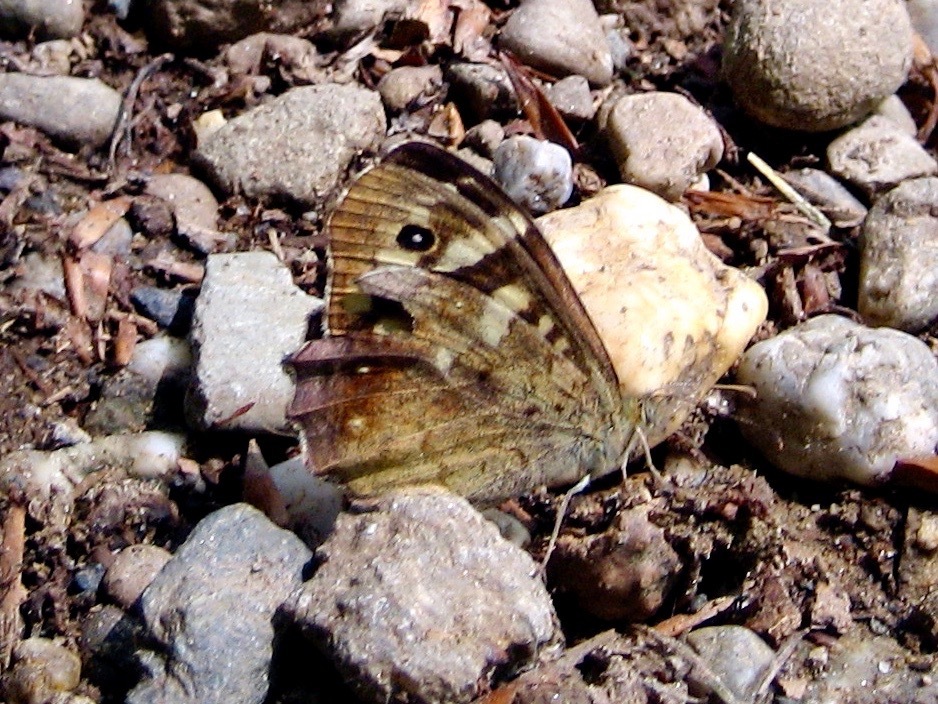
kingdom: Animalia
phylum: Arthropoda
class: Insecta
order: Lepidoptera
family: Nymphalidae
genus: Pararge
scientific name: Pararge aegeria
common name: Speckled wood
